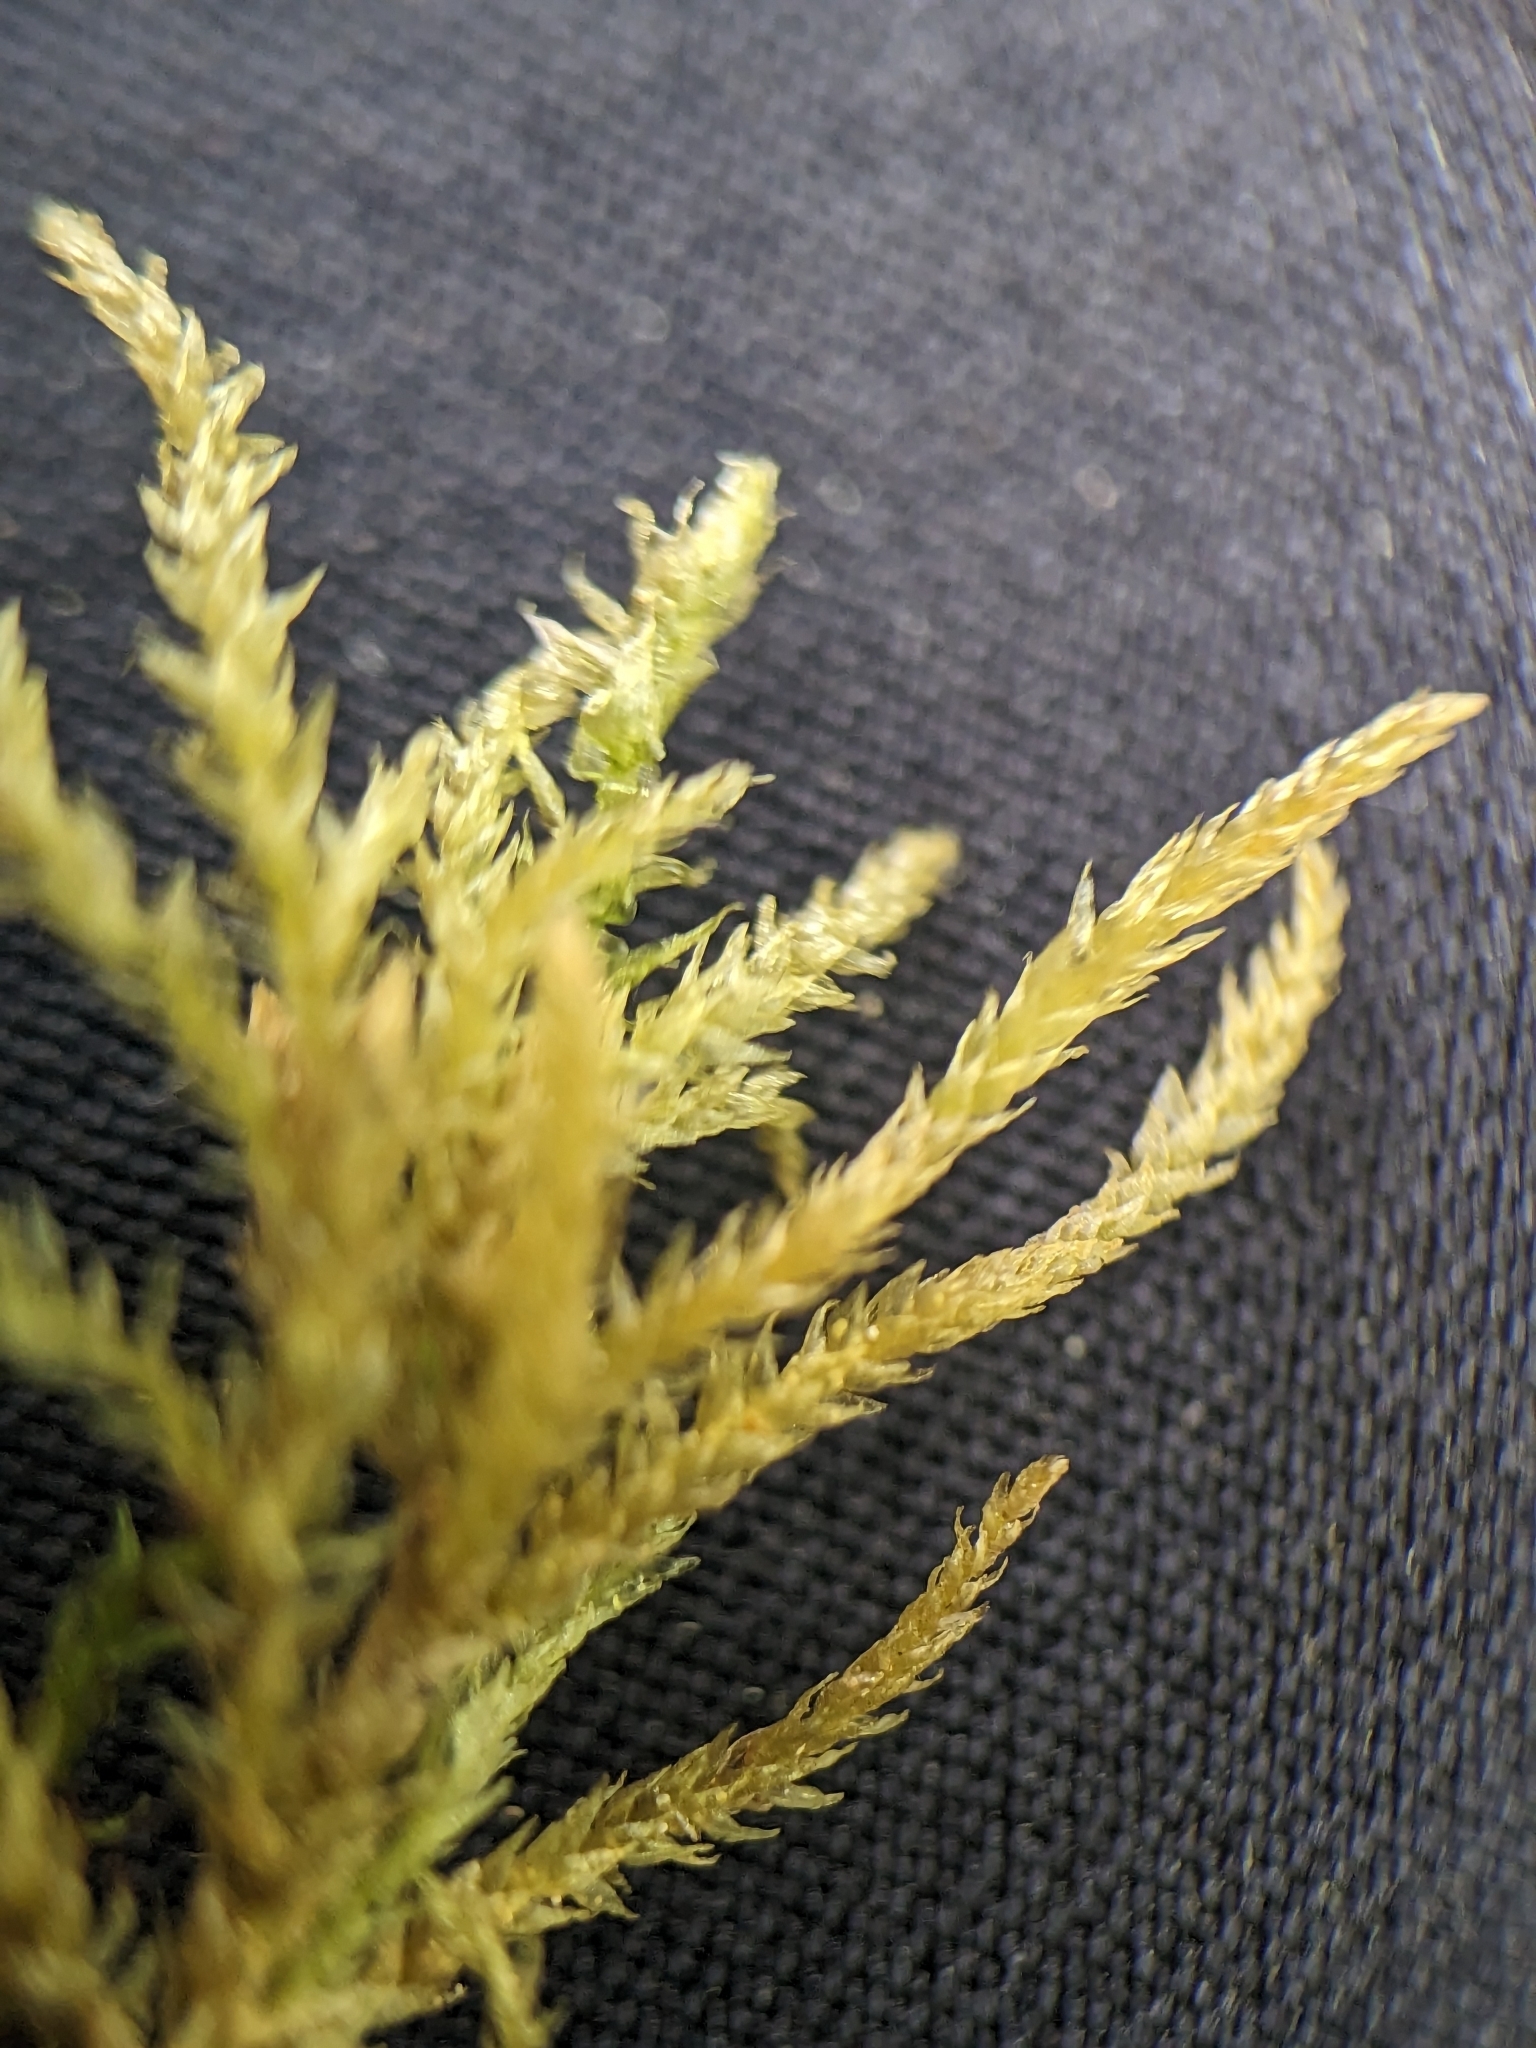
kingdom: Plantae
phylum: Bryophyta
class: Bryopsida
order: Hypnales
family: Brachytheciaceae
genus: Eurhynchiastrum
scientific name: Eurhynchiastrum pulchellum
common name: Elegant beaked moss
